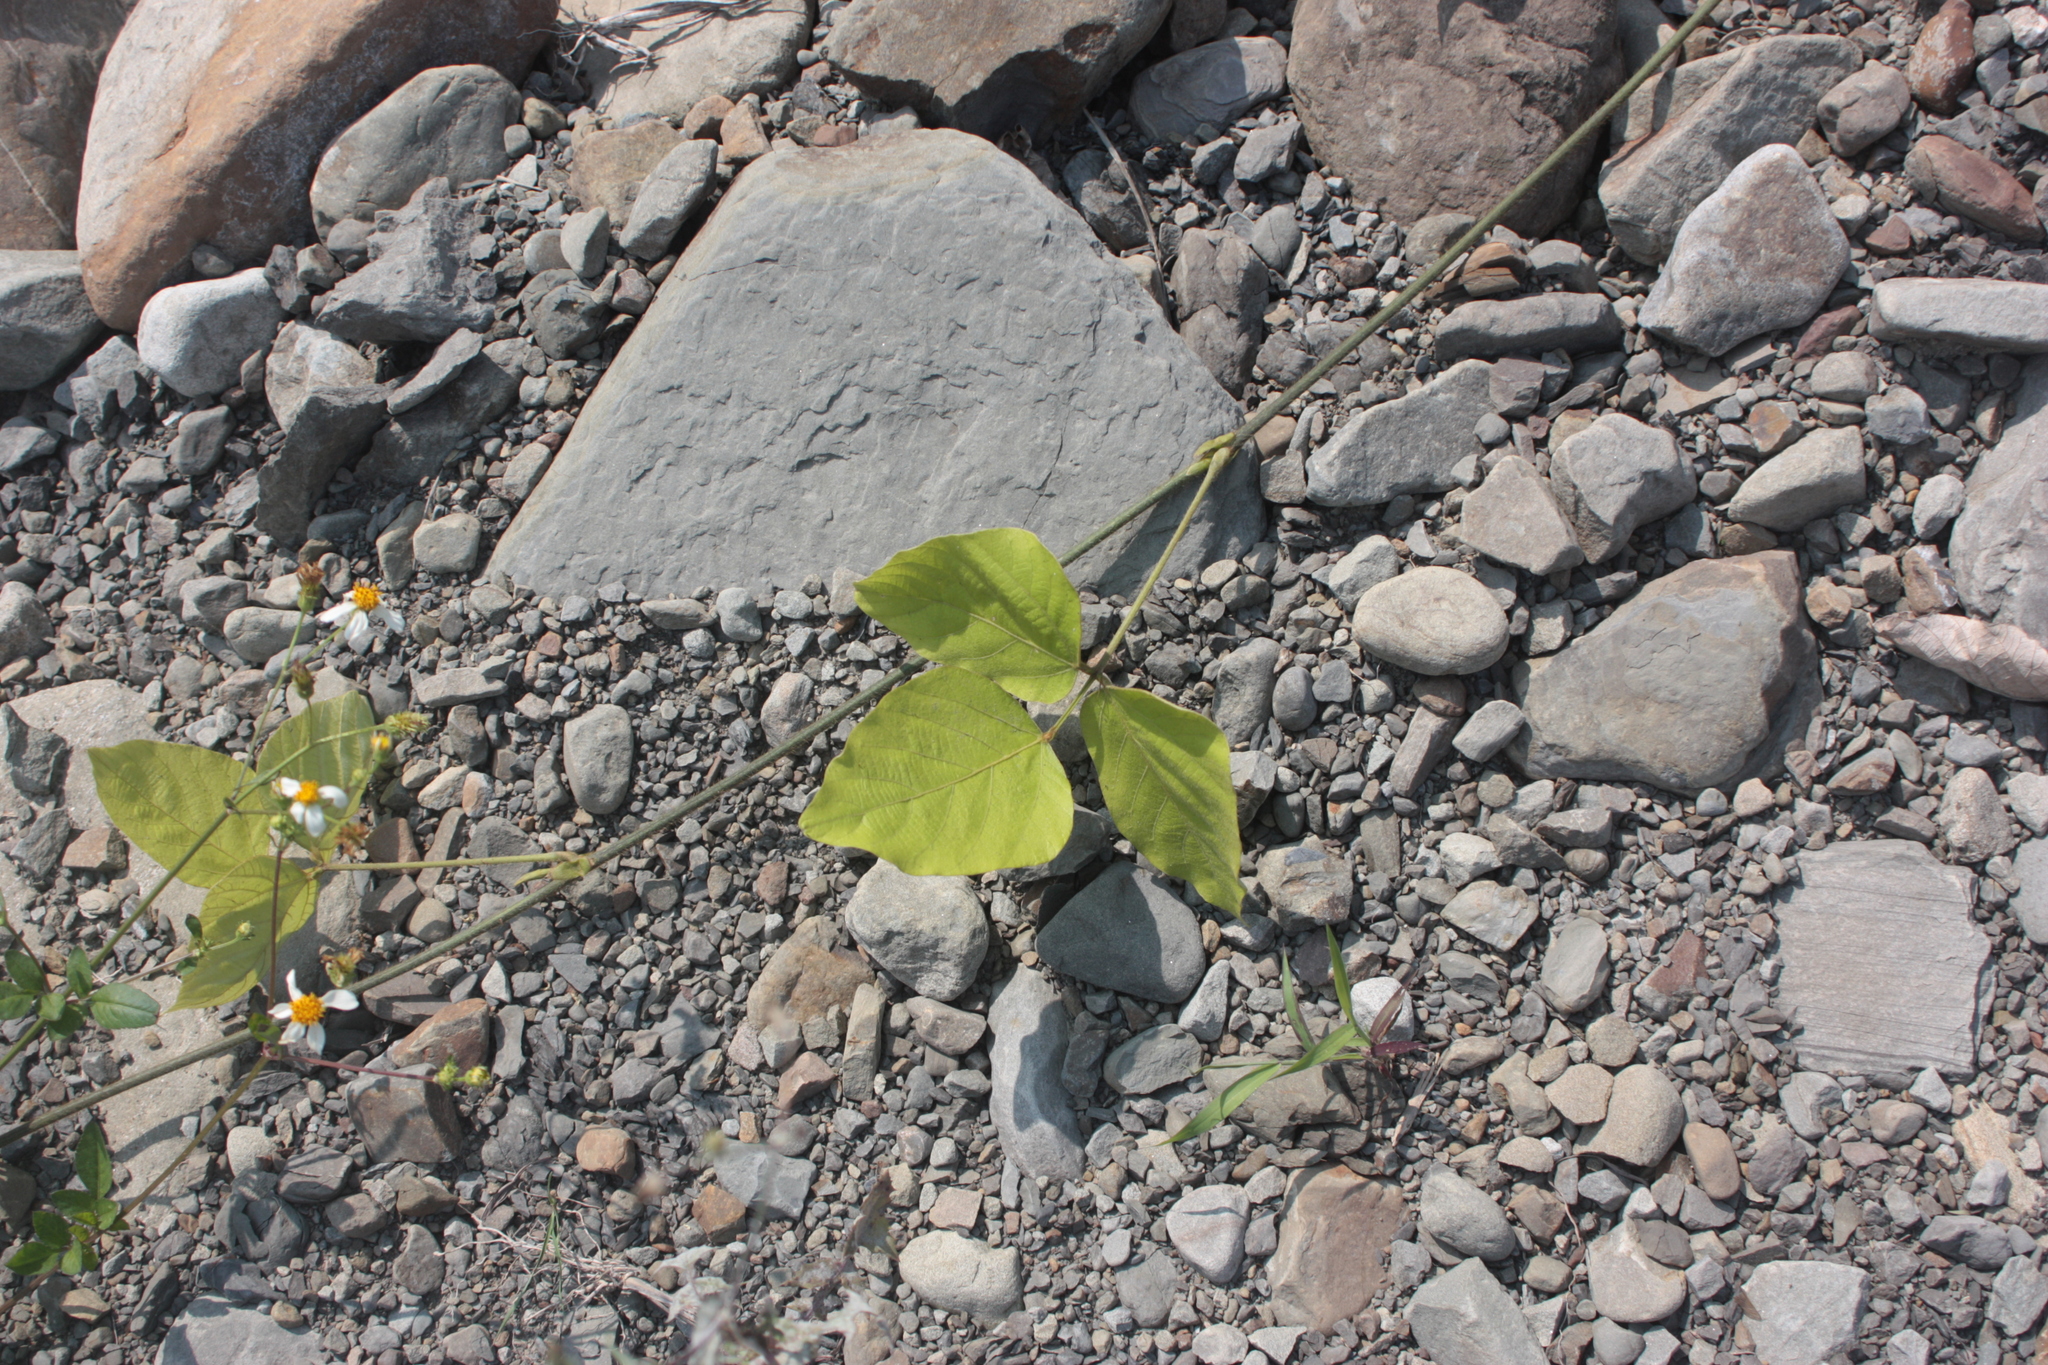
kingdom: Plantae
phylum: Tracheophyta
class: Magnoliopsida
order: Fabales
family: Fabaceae
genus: Pueraria
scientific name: Pueraria montana
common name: Kudzu
